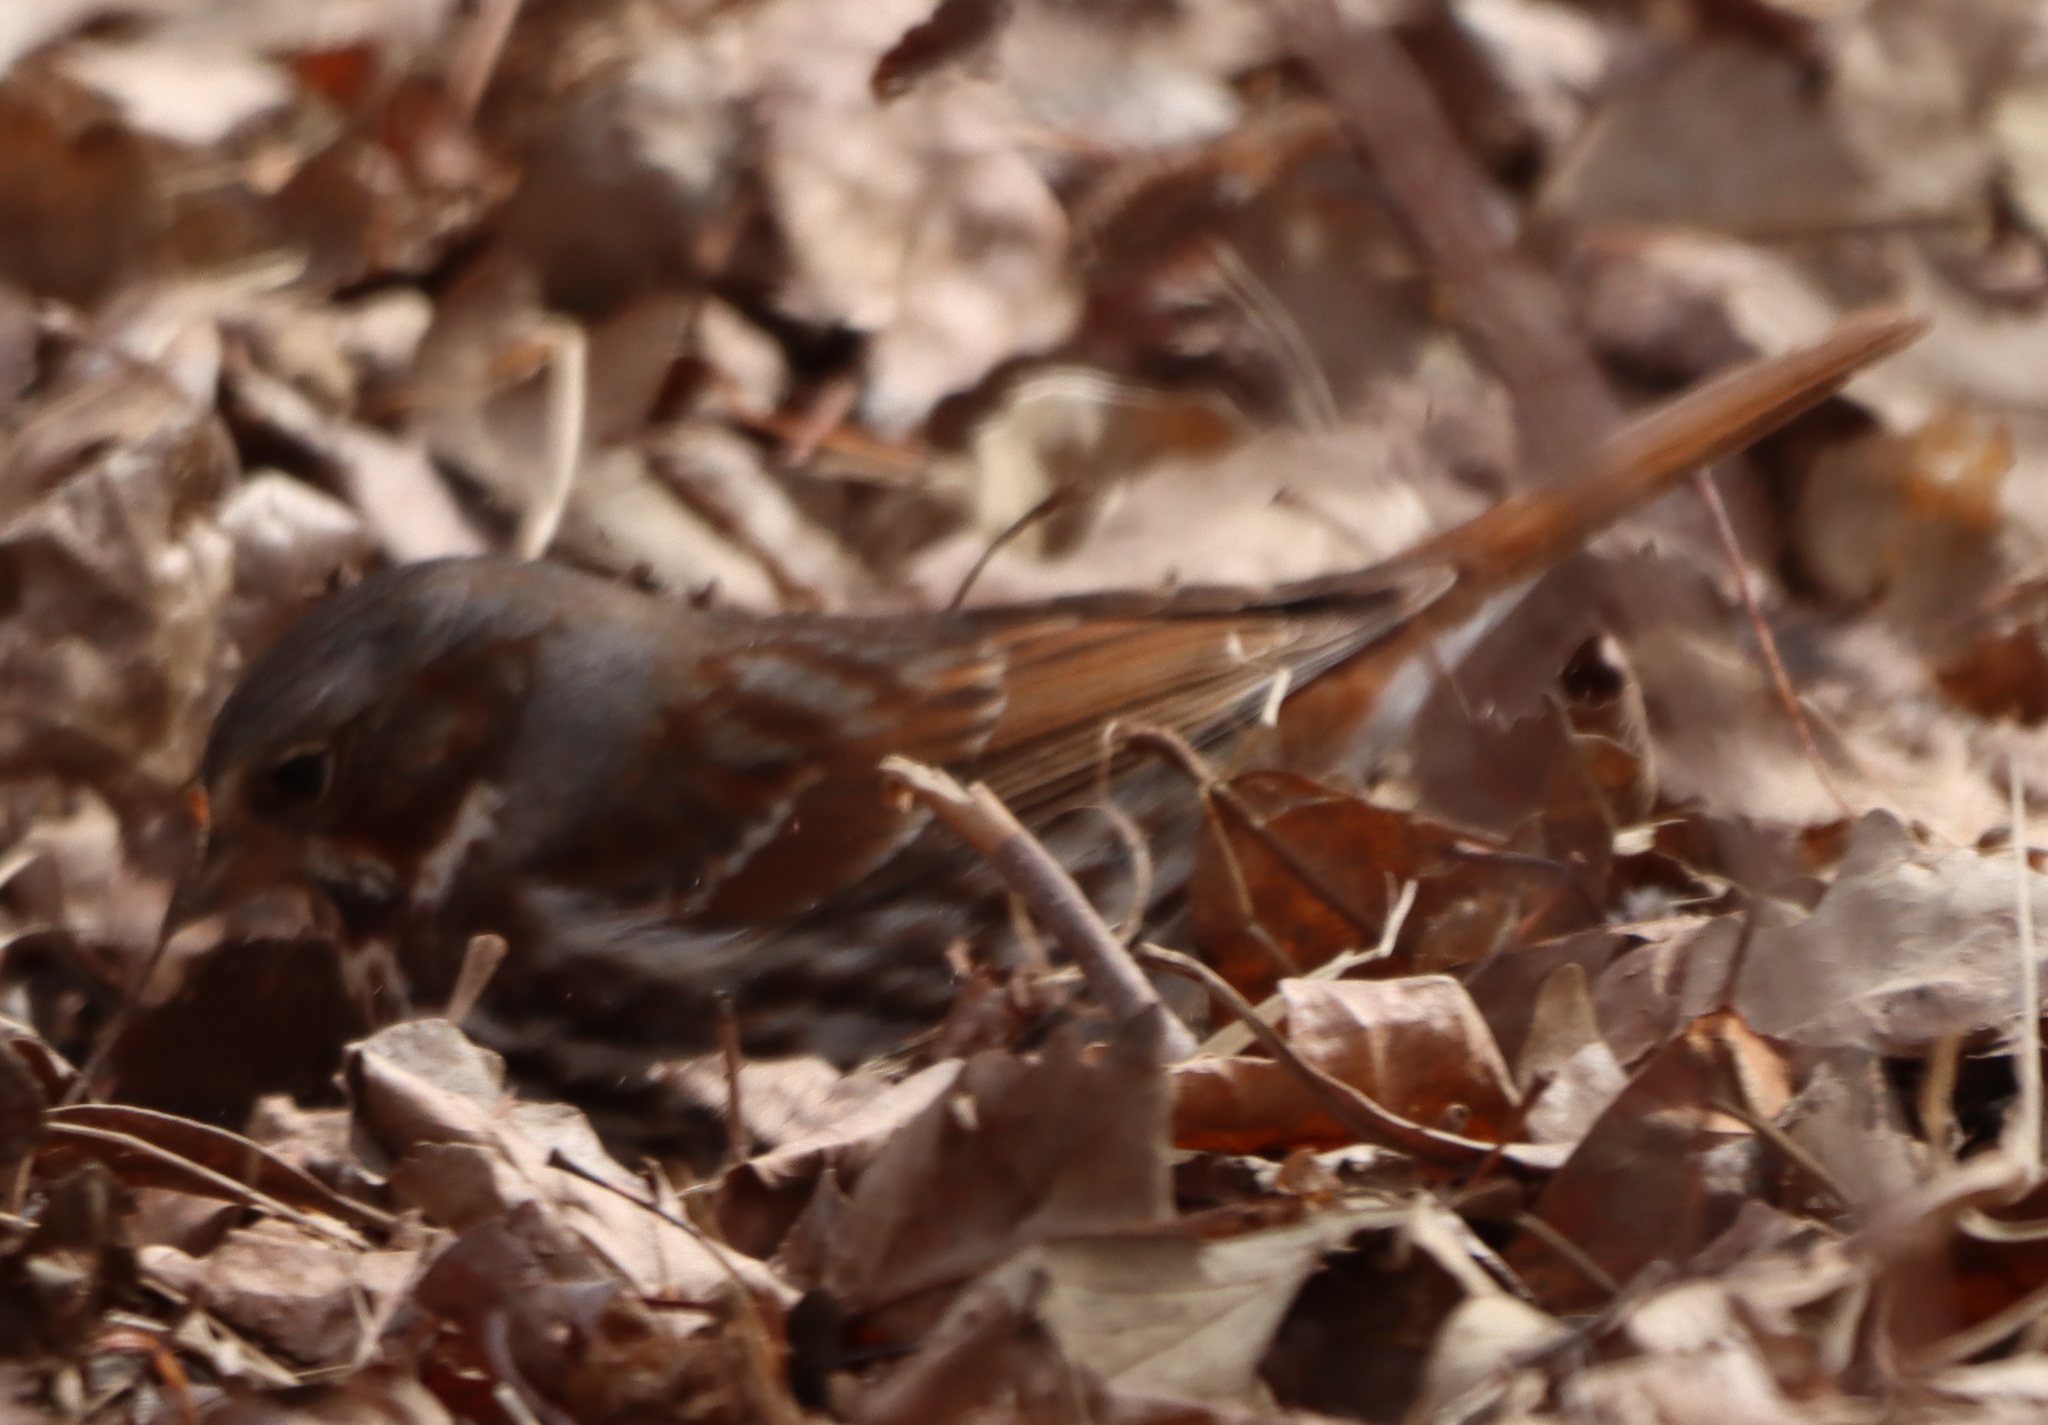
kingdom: Animalia
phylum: Chordata
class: Aves
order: Passeriformes
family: Passerellidae
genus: Passerella
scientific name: Passerella iliaca
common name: Fox sparrow
